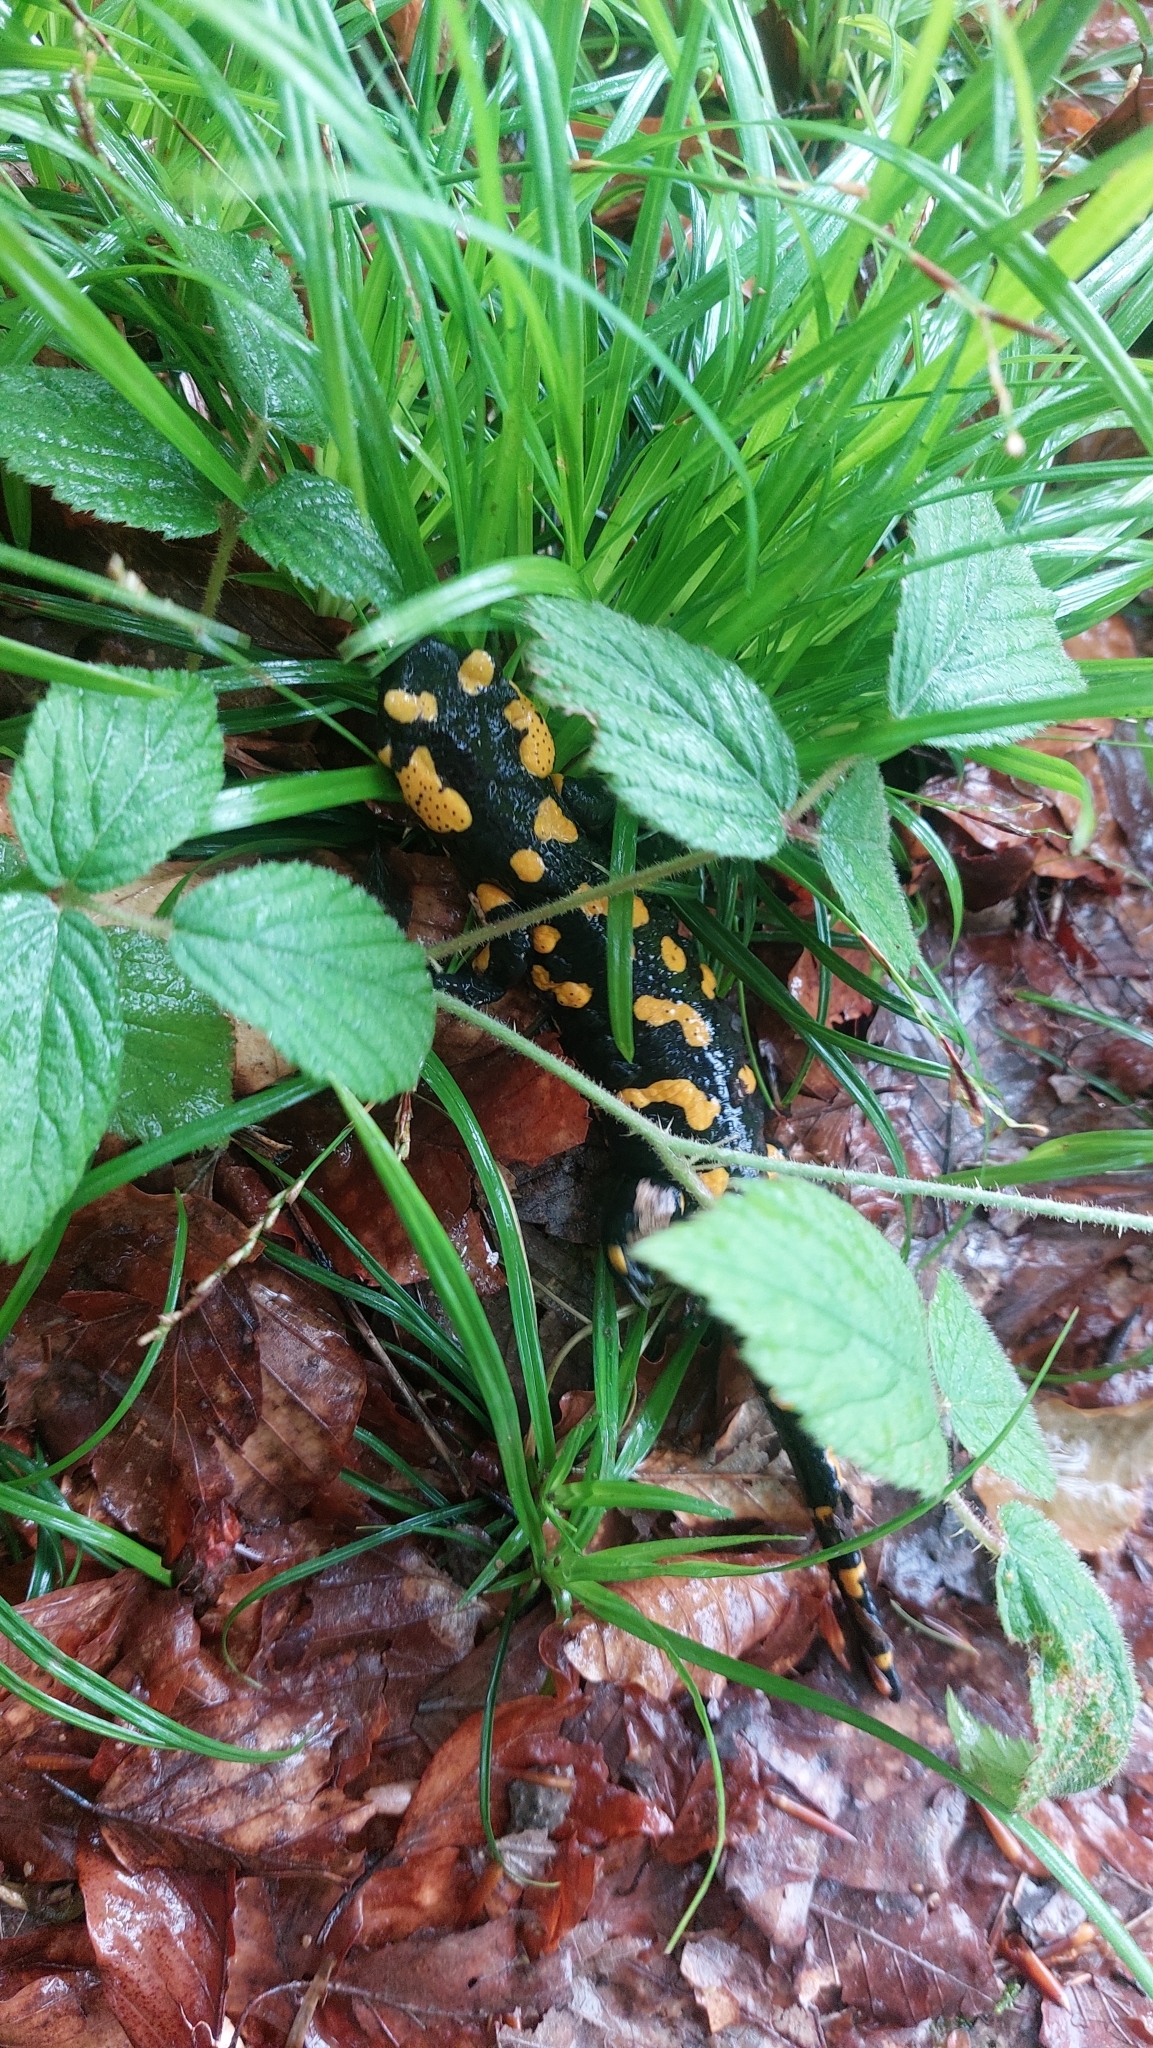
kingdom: Animalia
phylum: Chordata
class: Amphibia
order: Caudata
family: Salamandridae
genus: Salamandra
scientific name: Salamandra salamandra
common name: Fire salamander
